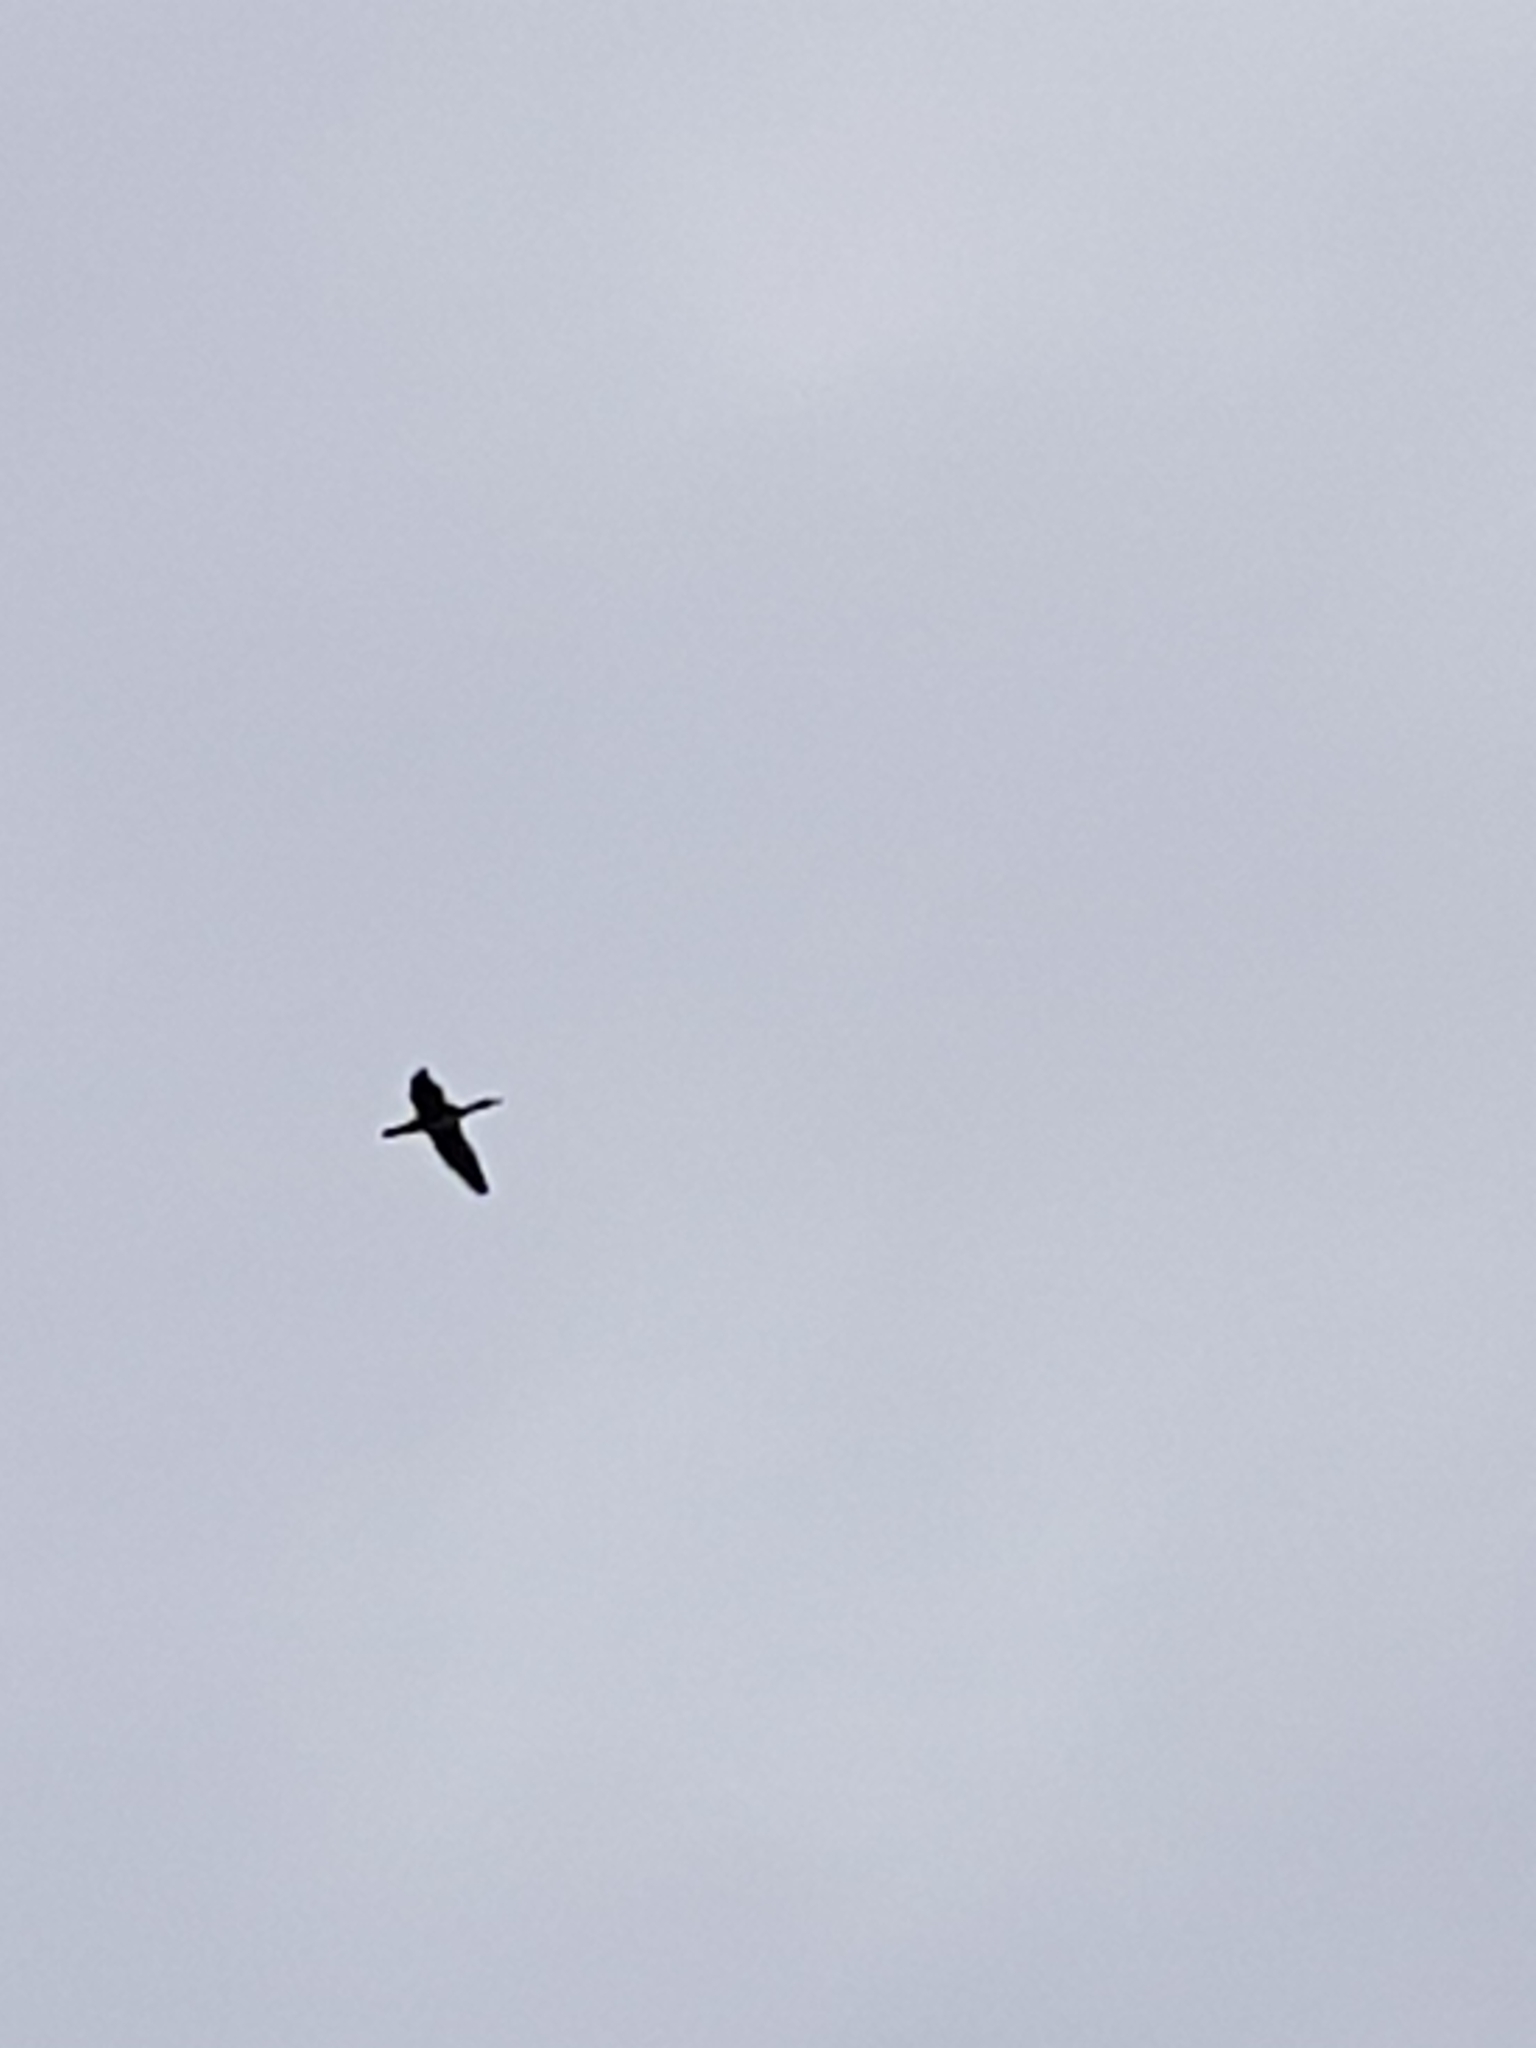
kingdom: Animalia
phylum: Chordata
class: Aves
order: Suliformes
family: Phalacrocoracidae
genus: Phalacrocorax
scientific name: Phalacrocorax carbo
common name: Great cormorant
